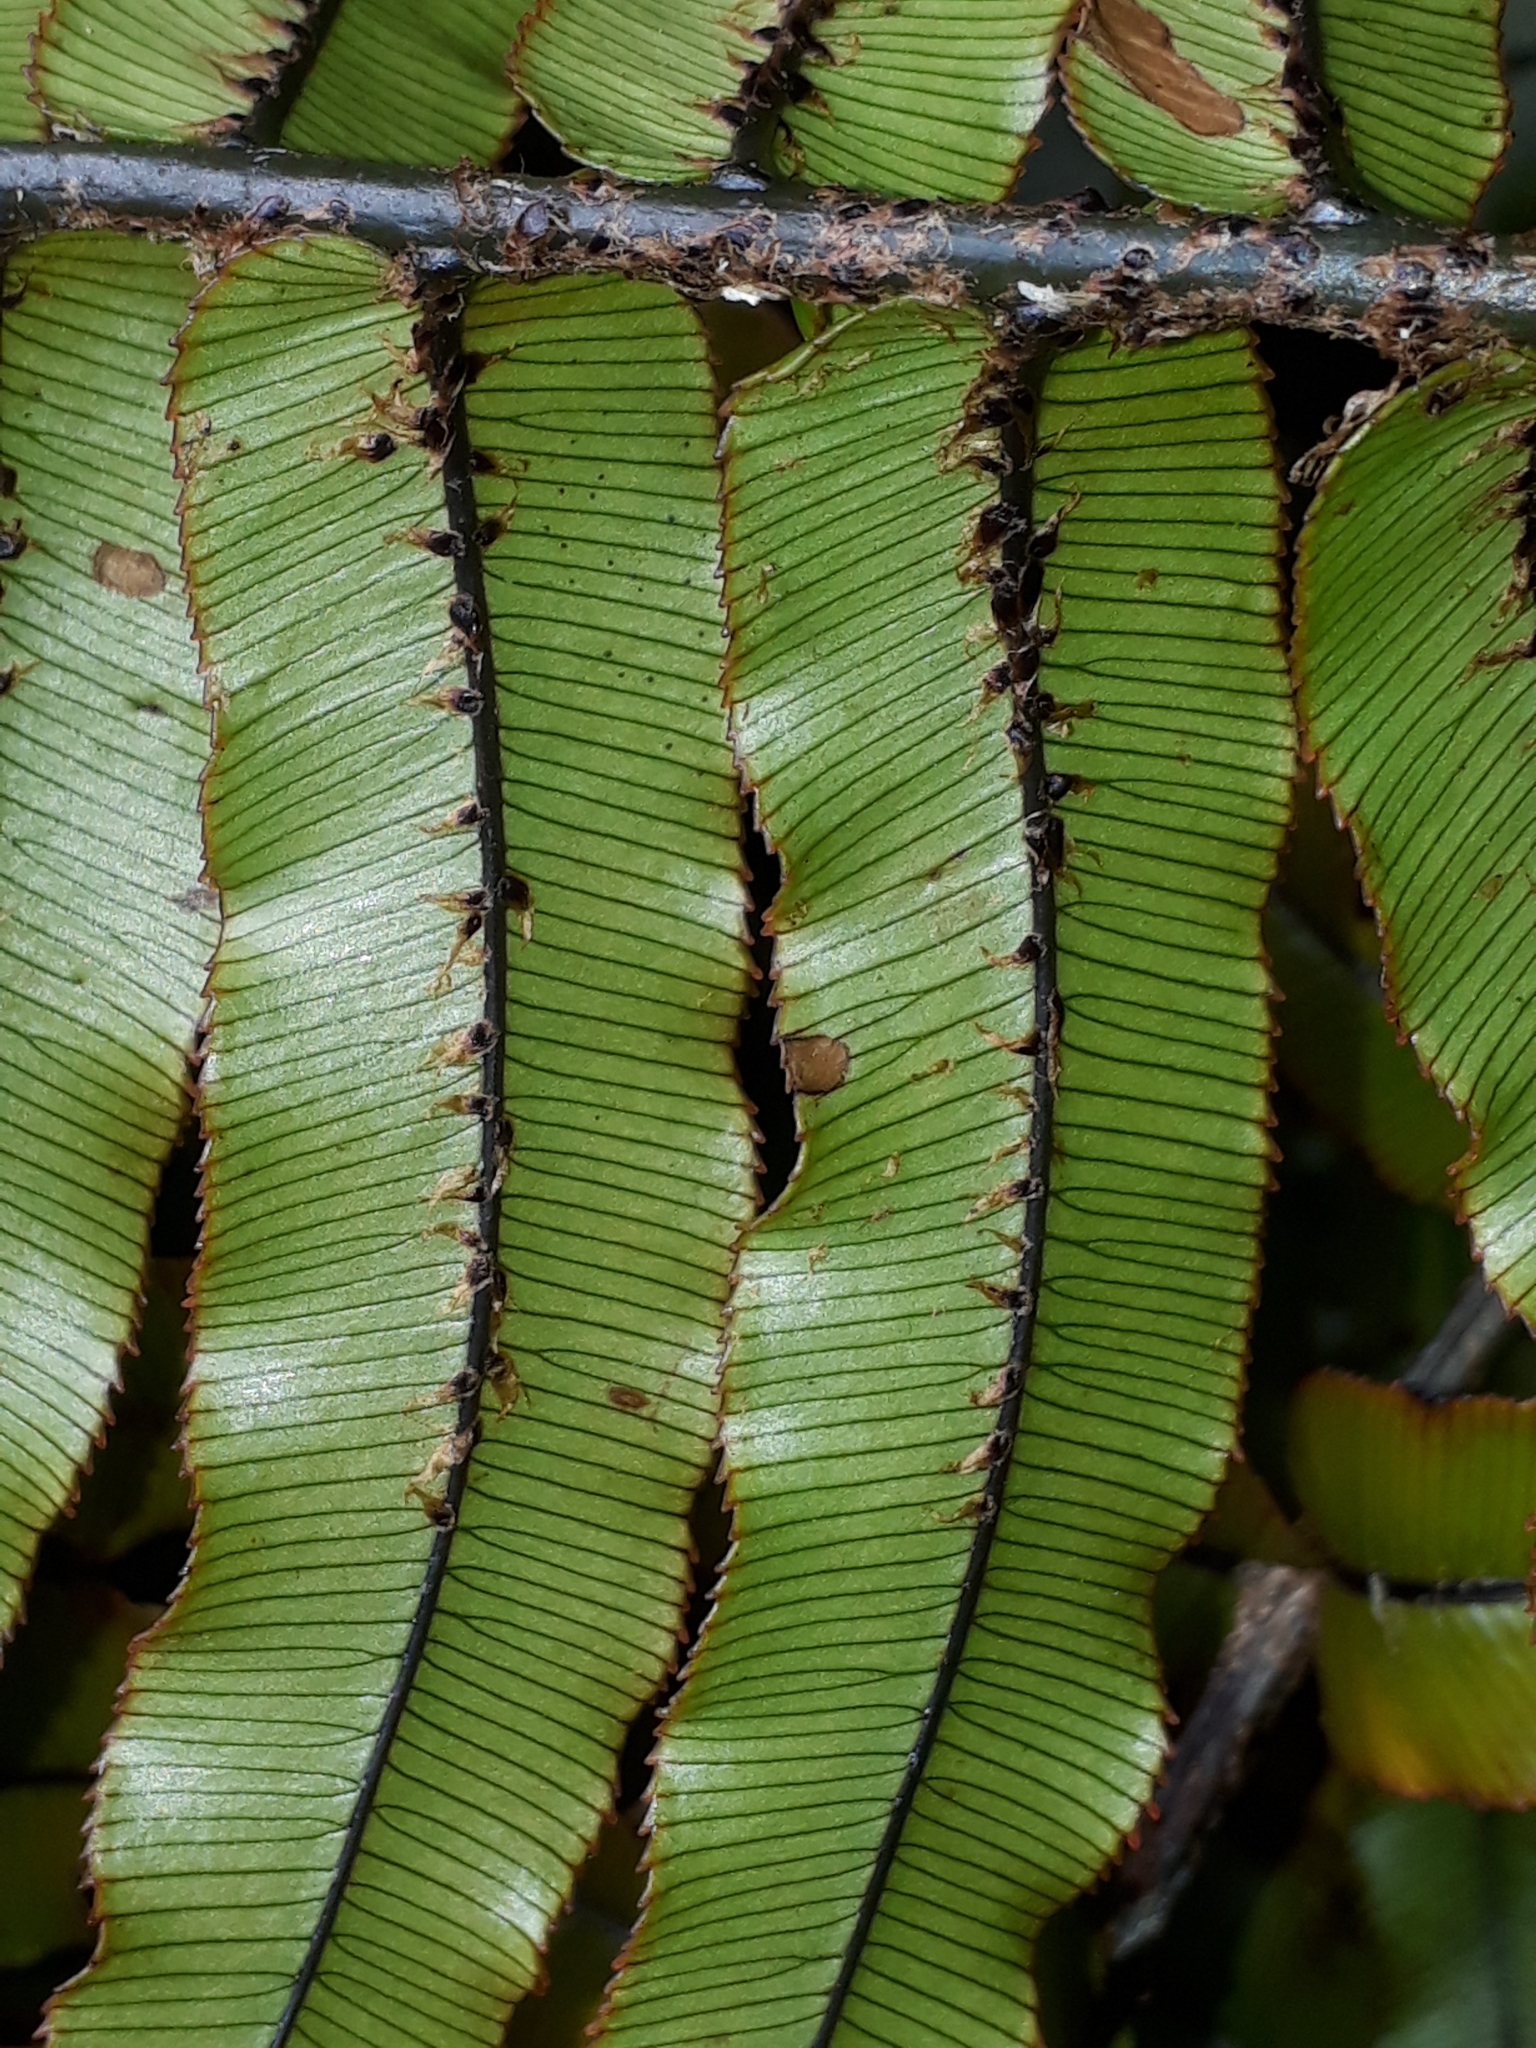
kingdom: Plantae
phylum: Tracheophyta
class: Polypodiopsida
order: Polypodiales
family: Blechnaceae
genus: Parablechnum
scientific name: Parablechnum montanum
